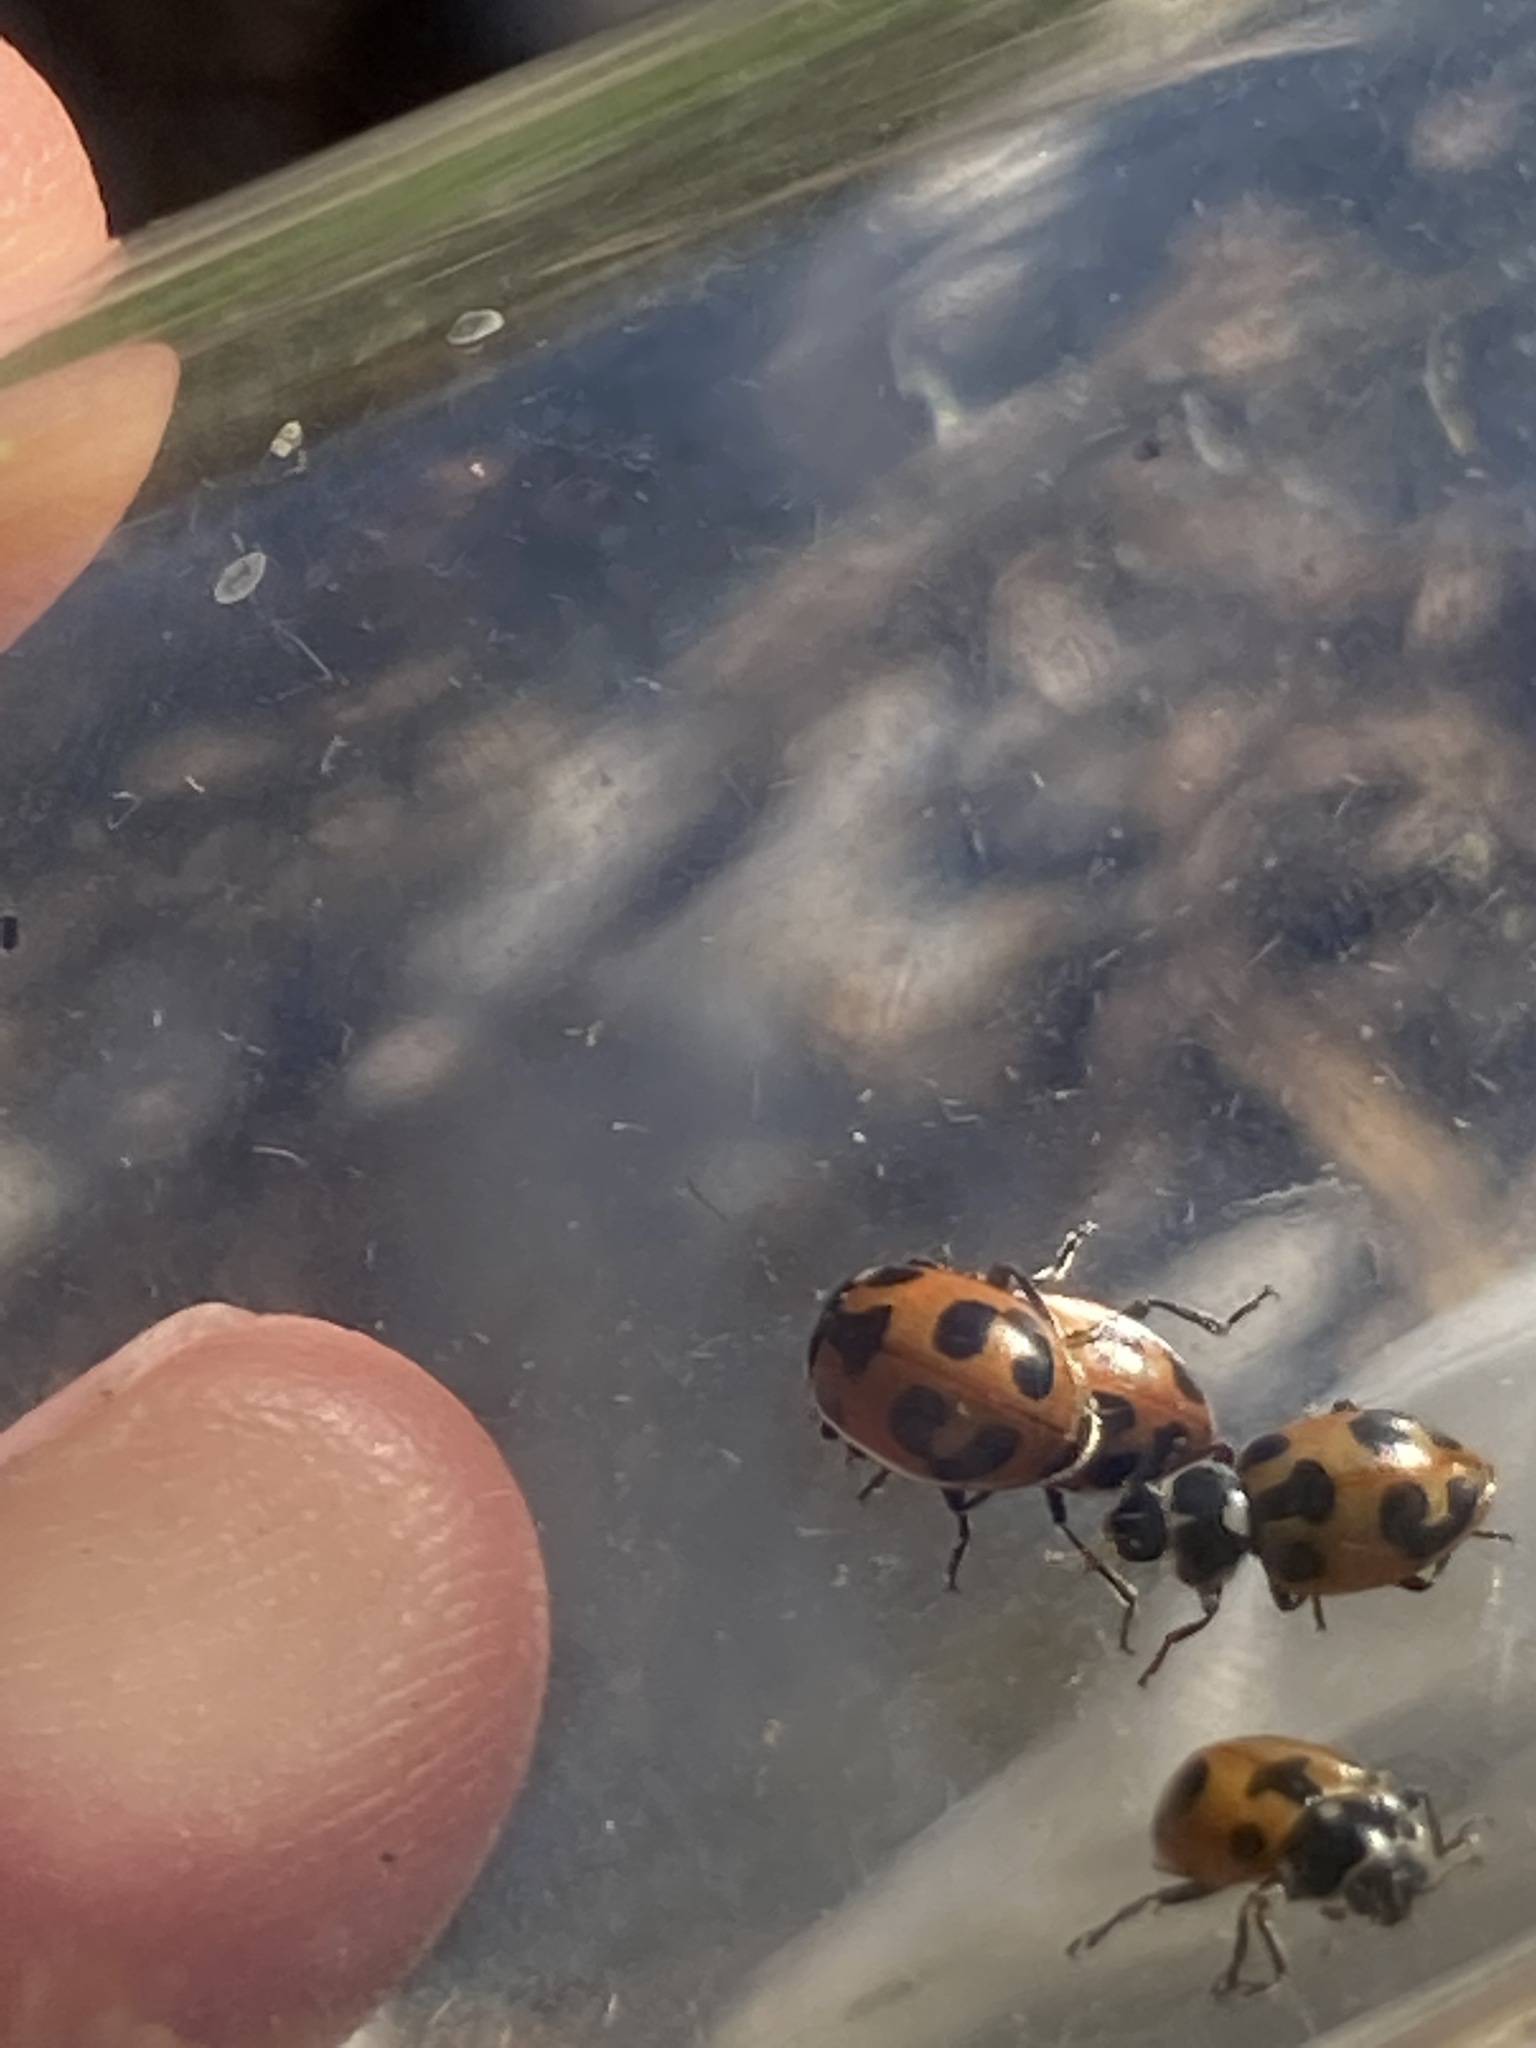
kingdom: Animalia
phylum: Arthropoda
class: Insecta
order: Coleoptera
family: Coccinellidae
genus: Hippodamia
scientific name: Hippodamia parenthesis
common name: Parenthesis lady beetle
